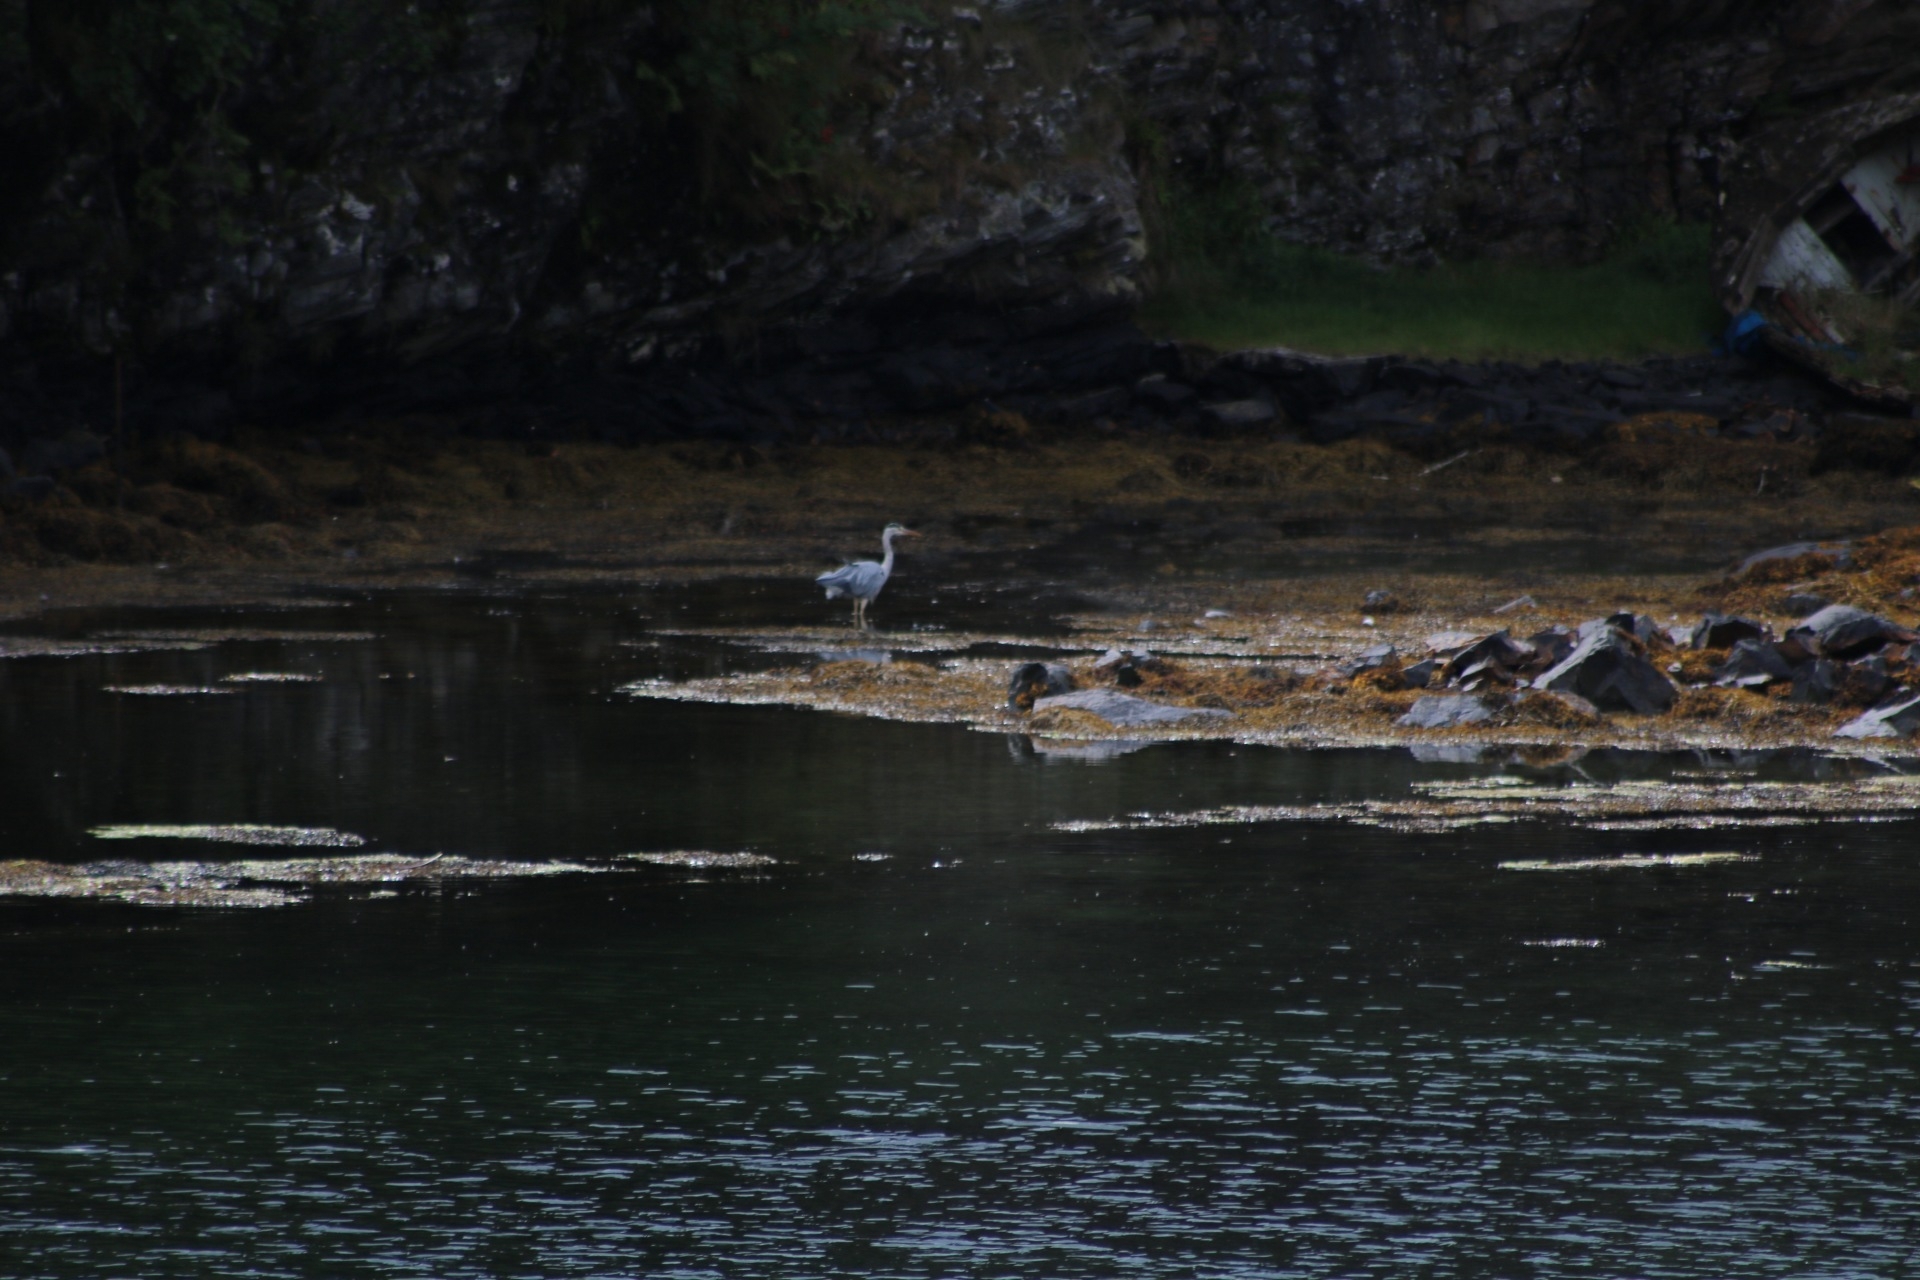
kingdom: Animalia
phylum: Chordata
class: Aves
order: Pelecaniformes
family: Ardeidae
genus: Ardea
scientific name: Ardea cinerea
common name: Grey heron
